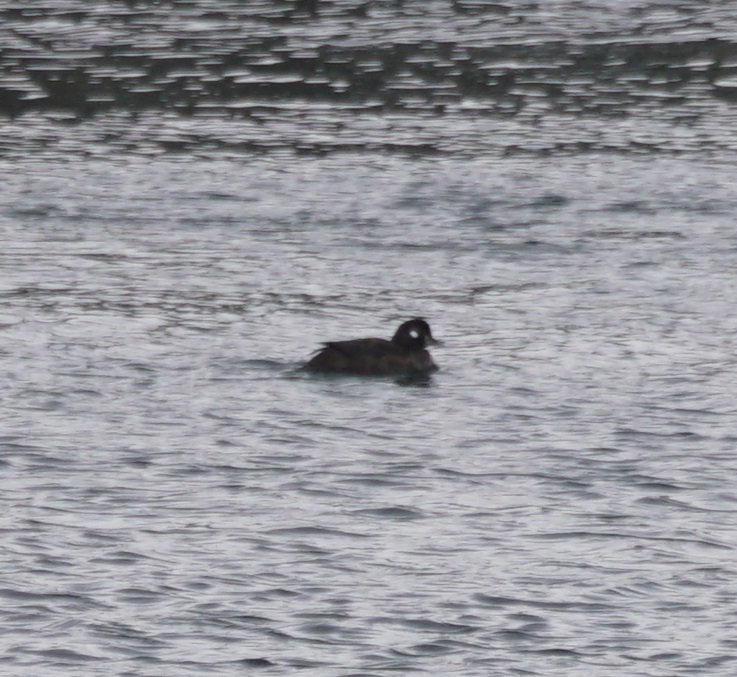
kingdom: Animalia
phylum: Chordata
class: Aves
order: Anseriformes
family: Anatidae
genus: Histrionicus
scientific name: Histrionicus histrionicus
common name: Harlequin duck
